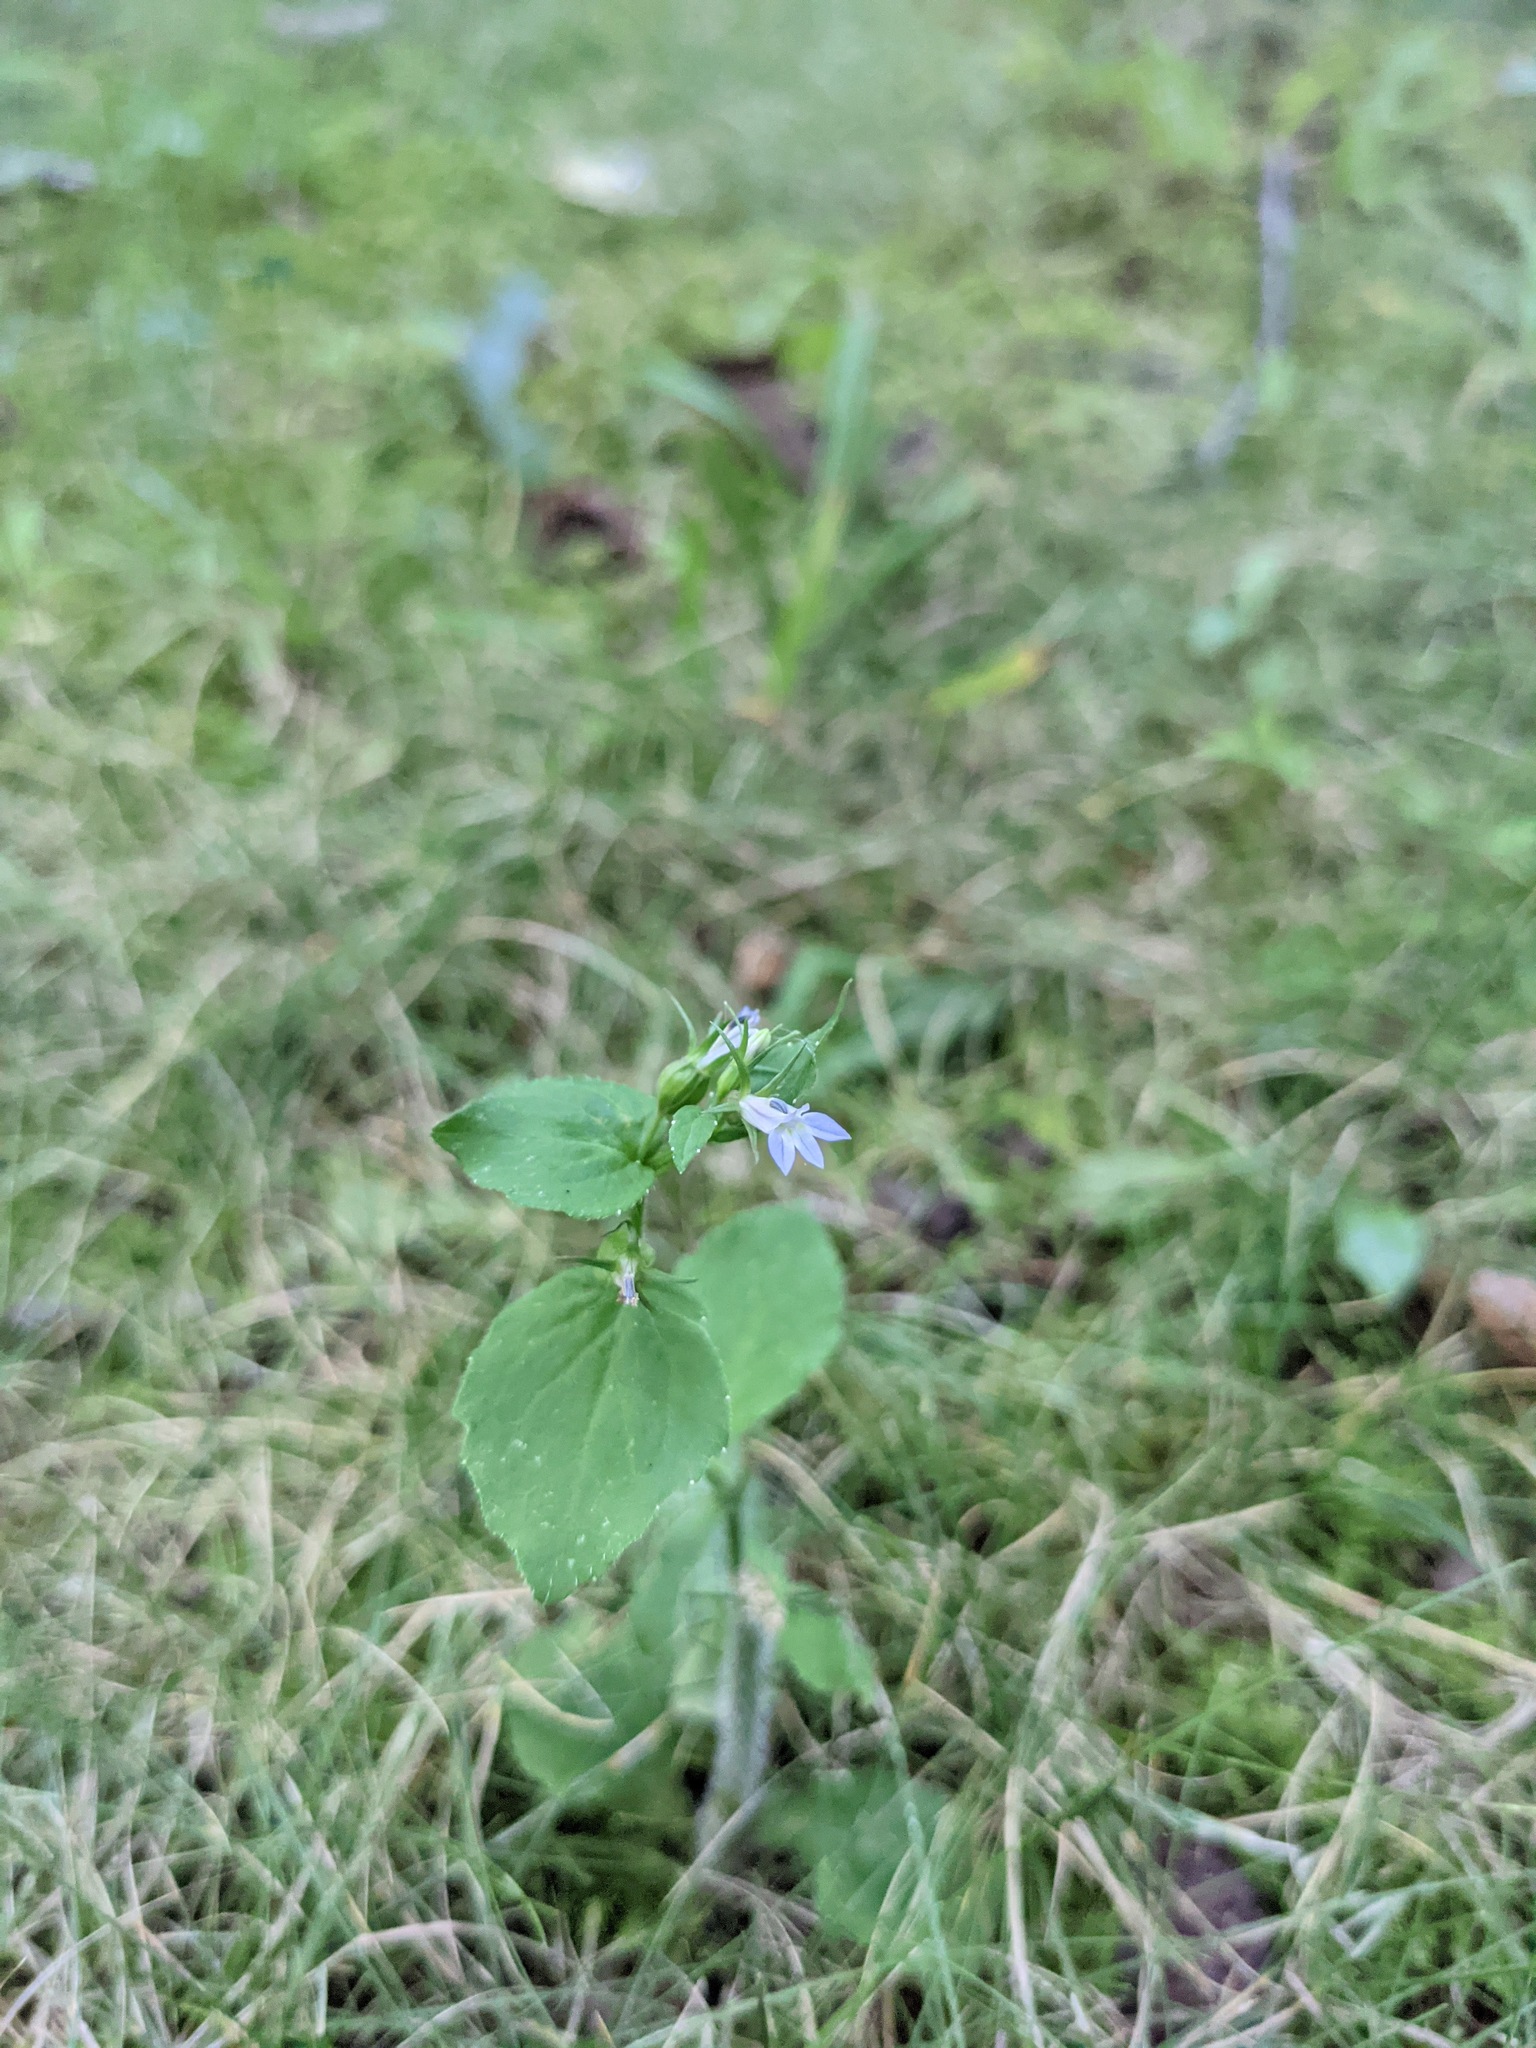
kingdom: Plantae
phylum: Tracheophyta
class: Magnoliopsida
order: Asterales
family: Campanulaceae
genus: Lobelia
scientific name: Lobelia inflata
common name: Indian tobacco
